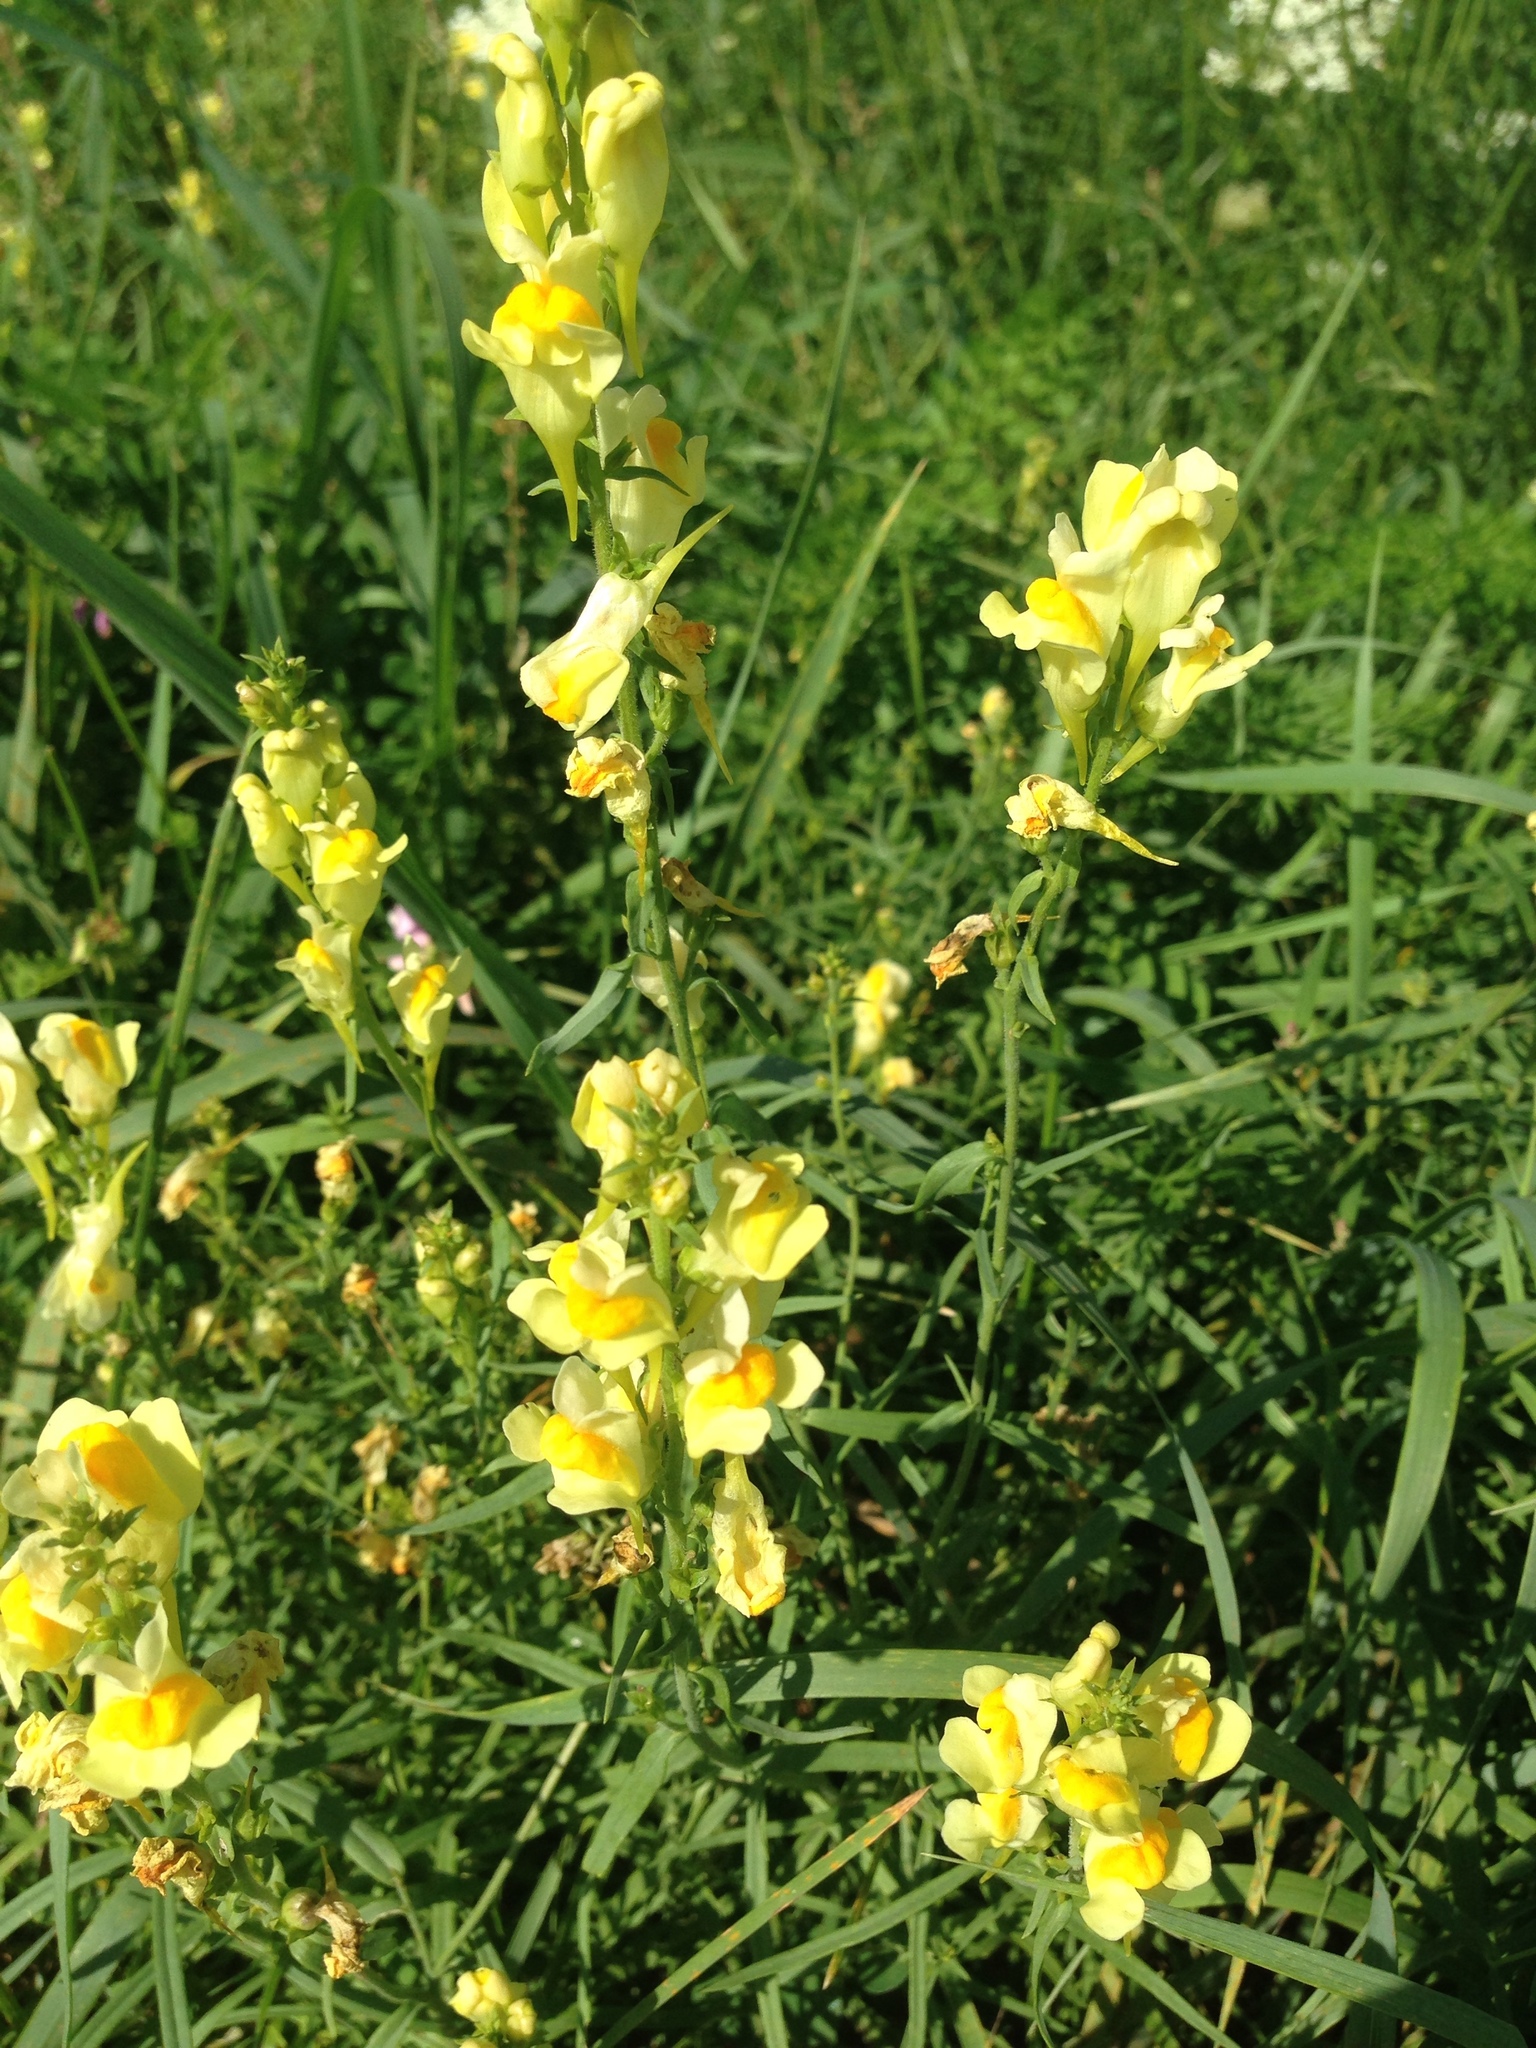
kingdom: Plantae
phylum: Tracheophyta
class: Magnoliopsida
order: Lamiales
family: Plantaginaceae
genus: Linaria
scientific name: Linaria vulgaris
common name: Butter and eggs
